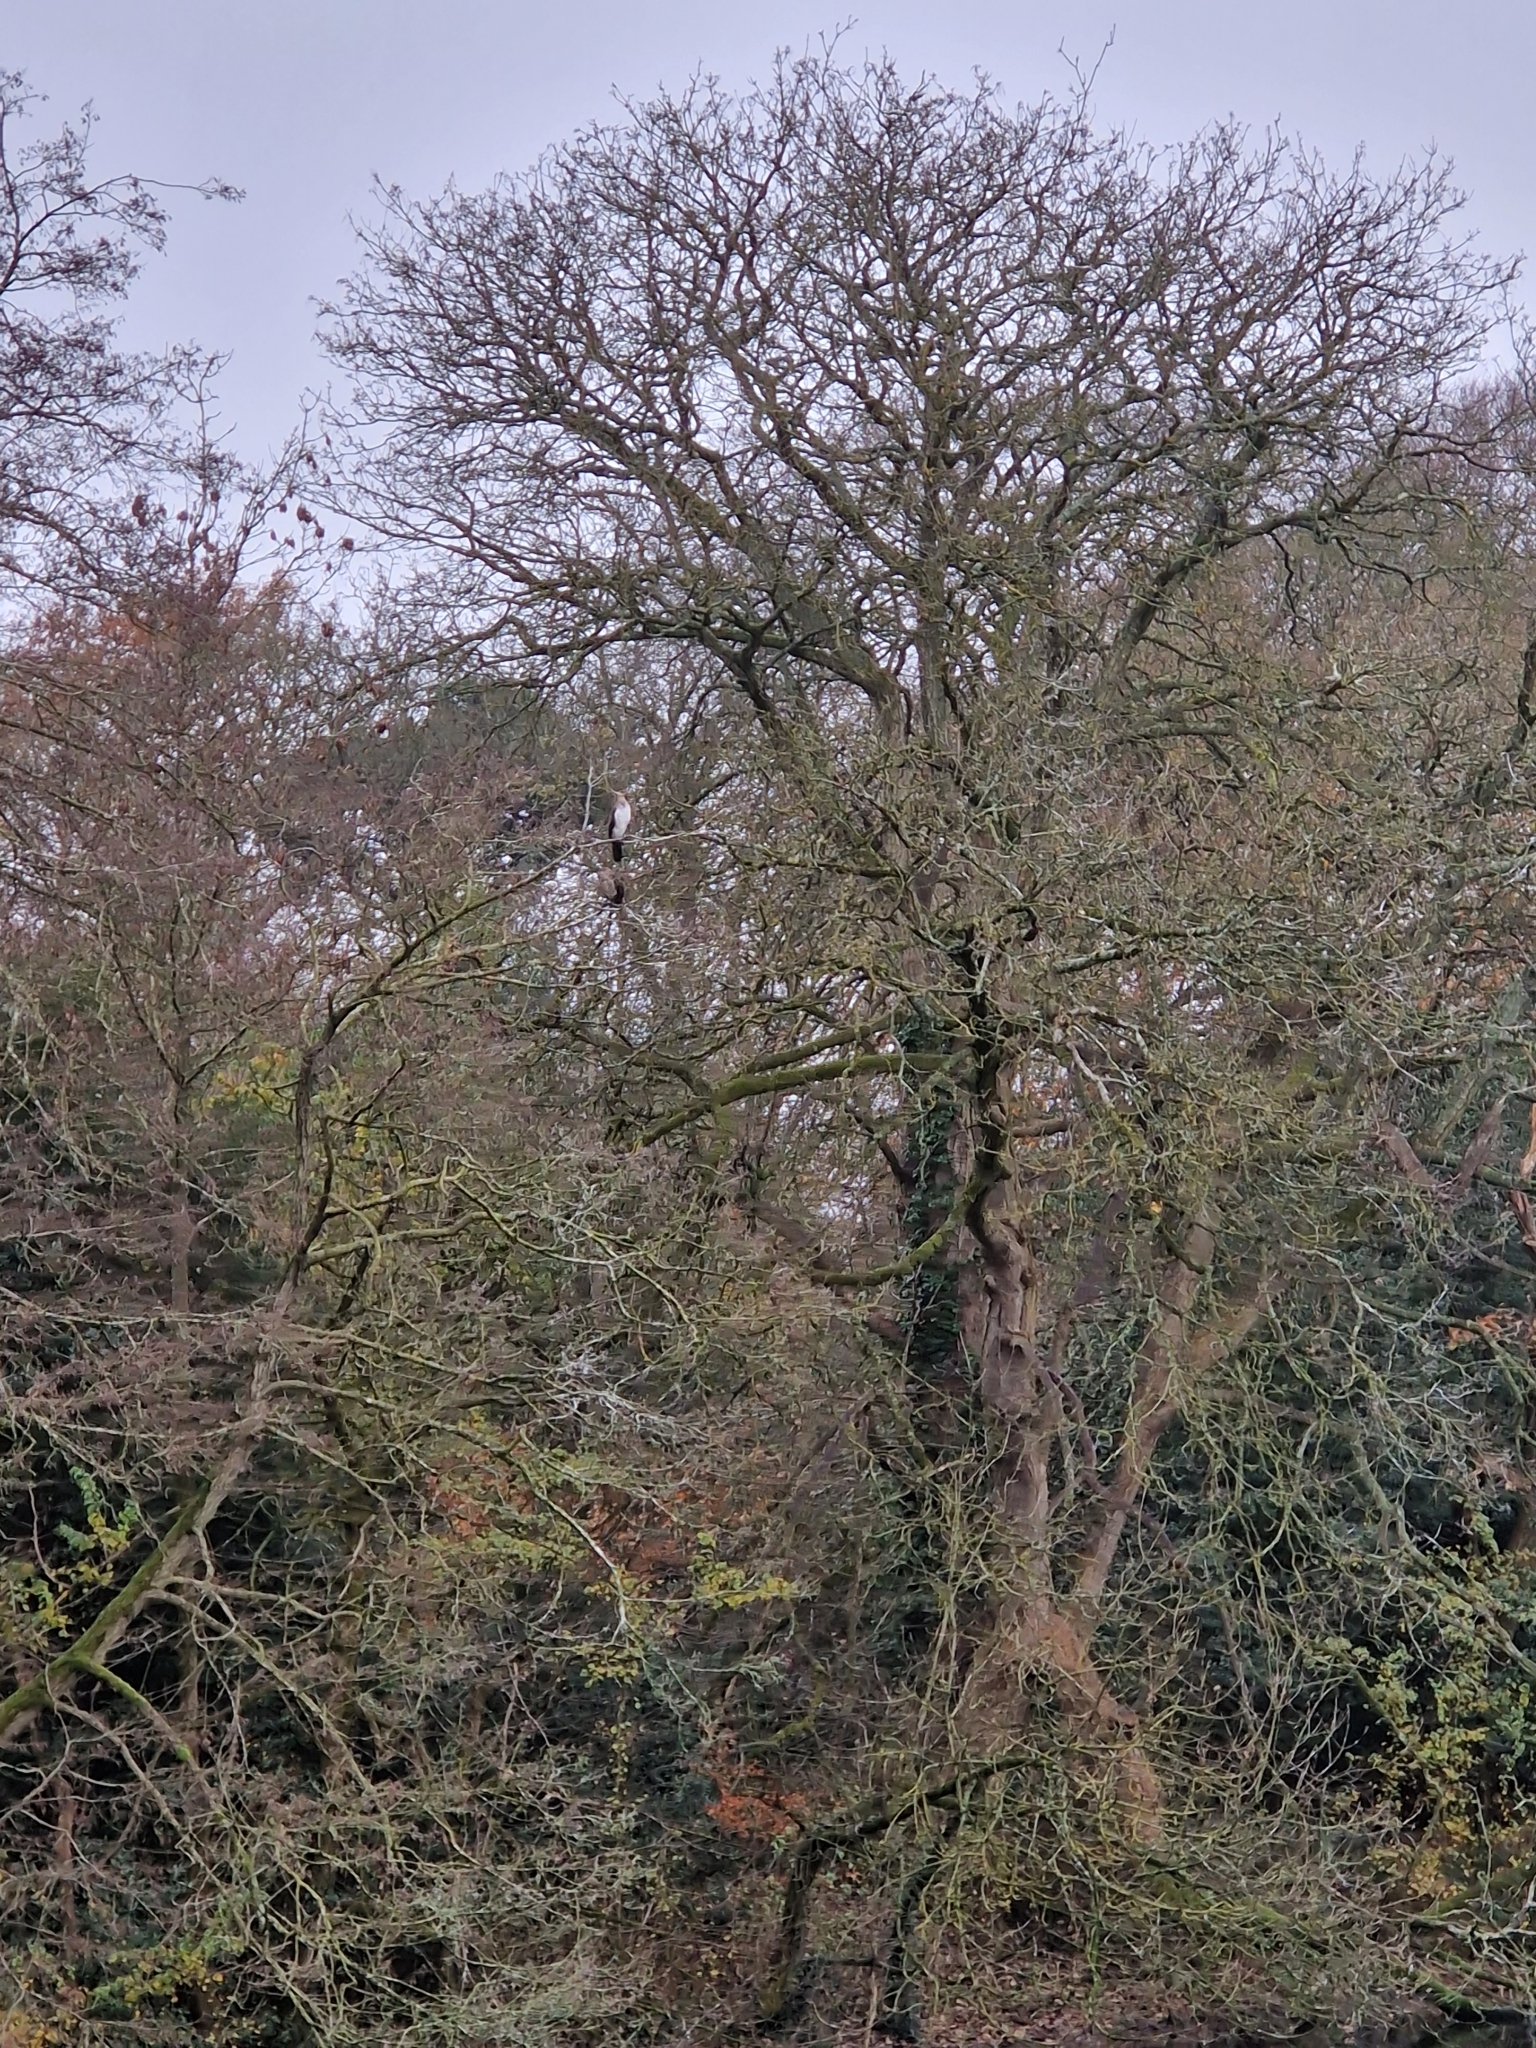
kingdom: Animalia
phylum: Chordata
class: Aves
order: Suliformes
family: Phalacrocoracidae
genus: Phalacrocorax
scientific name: Phalacrocorax carbo
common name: Great cormorant
